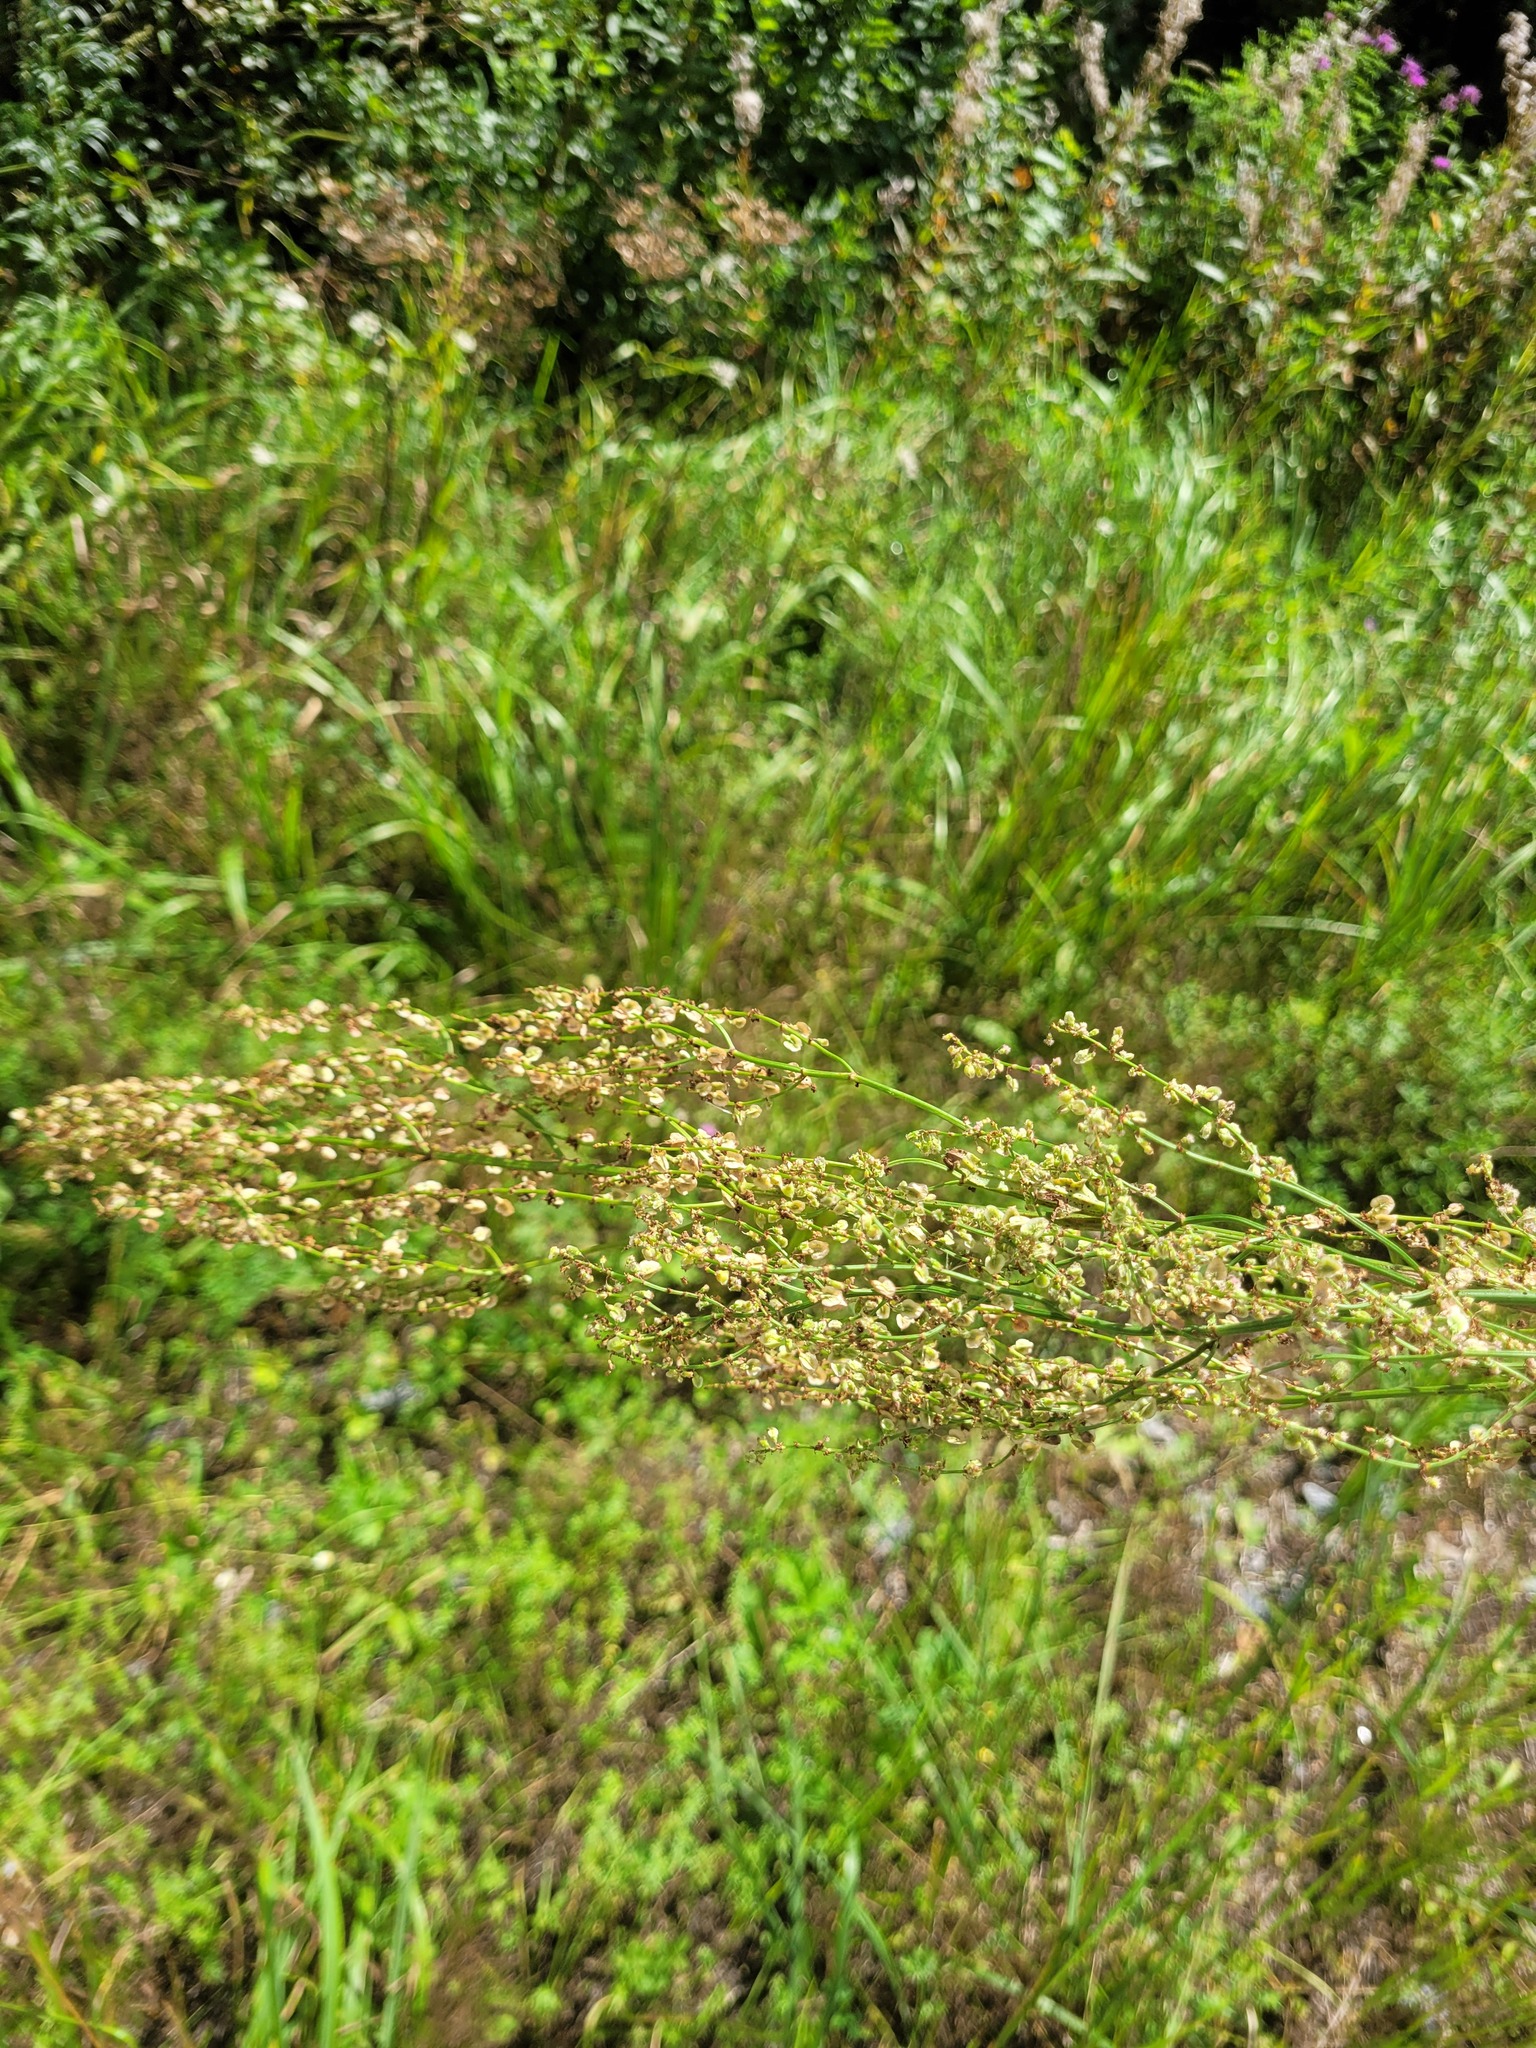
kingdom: Plantae
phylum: Tracheophyta
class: Magnoliopsida
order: Caryophyllales
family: Polygonaceae
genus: Rumex
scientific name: Rumex thyrsiflorus
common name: Garden sorrel
